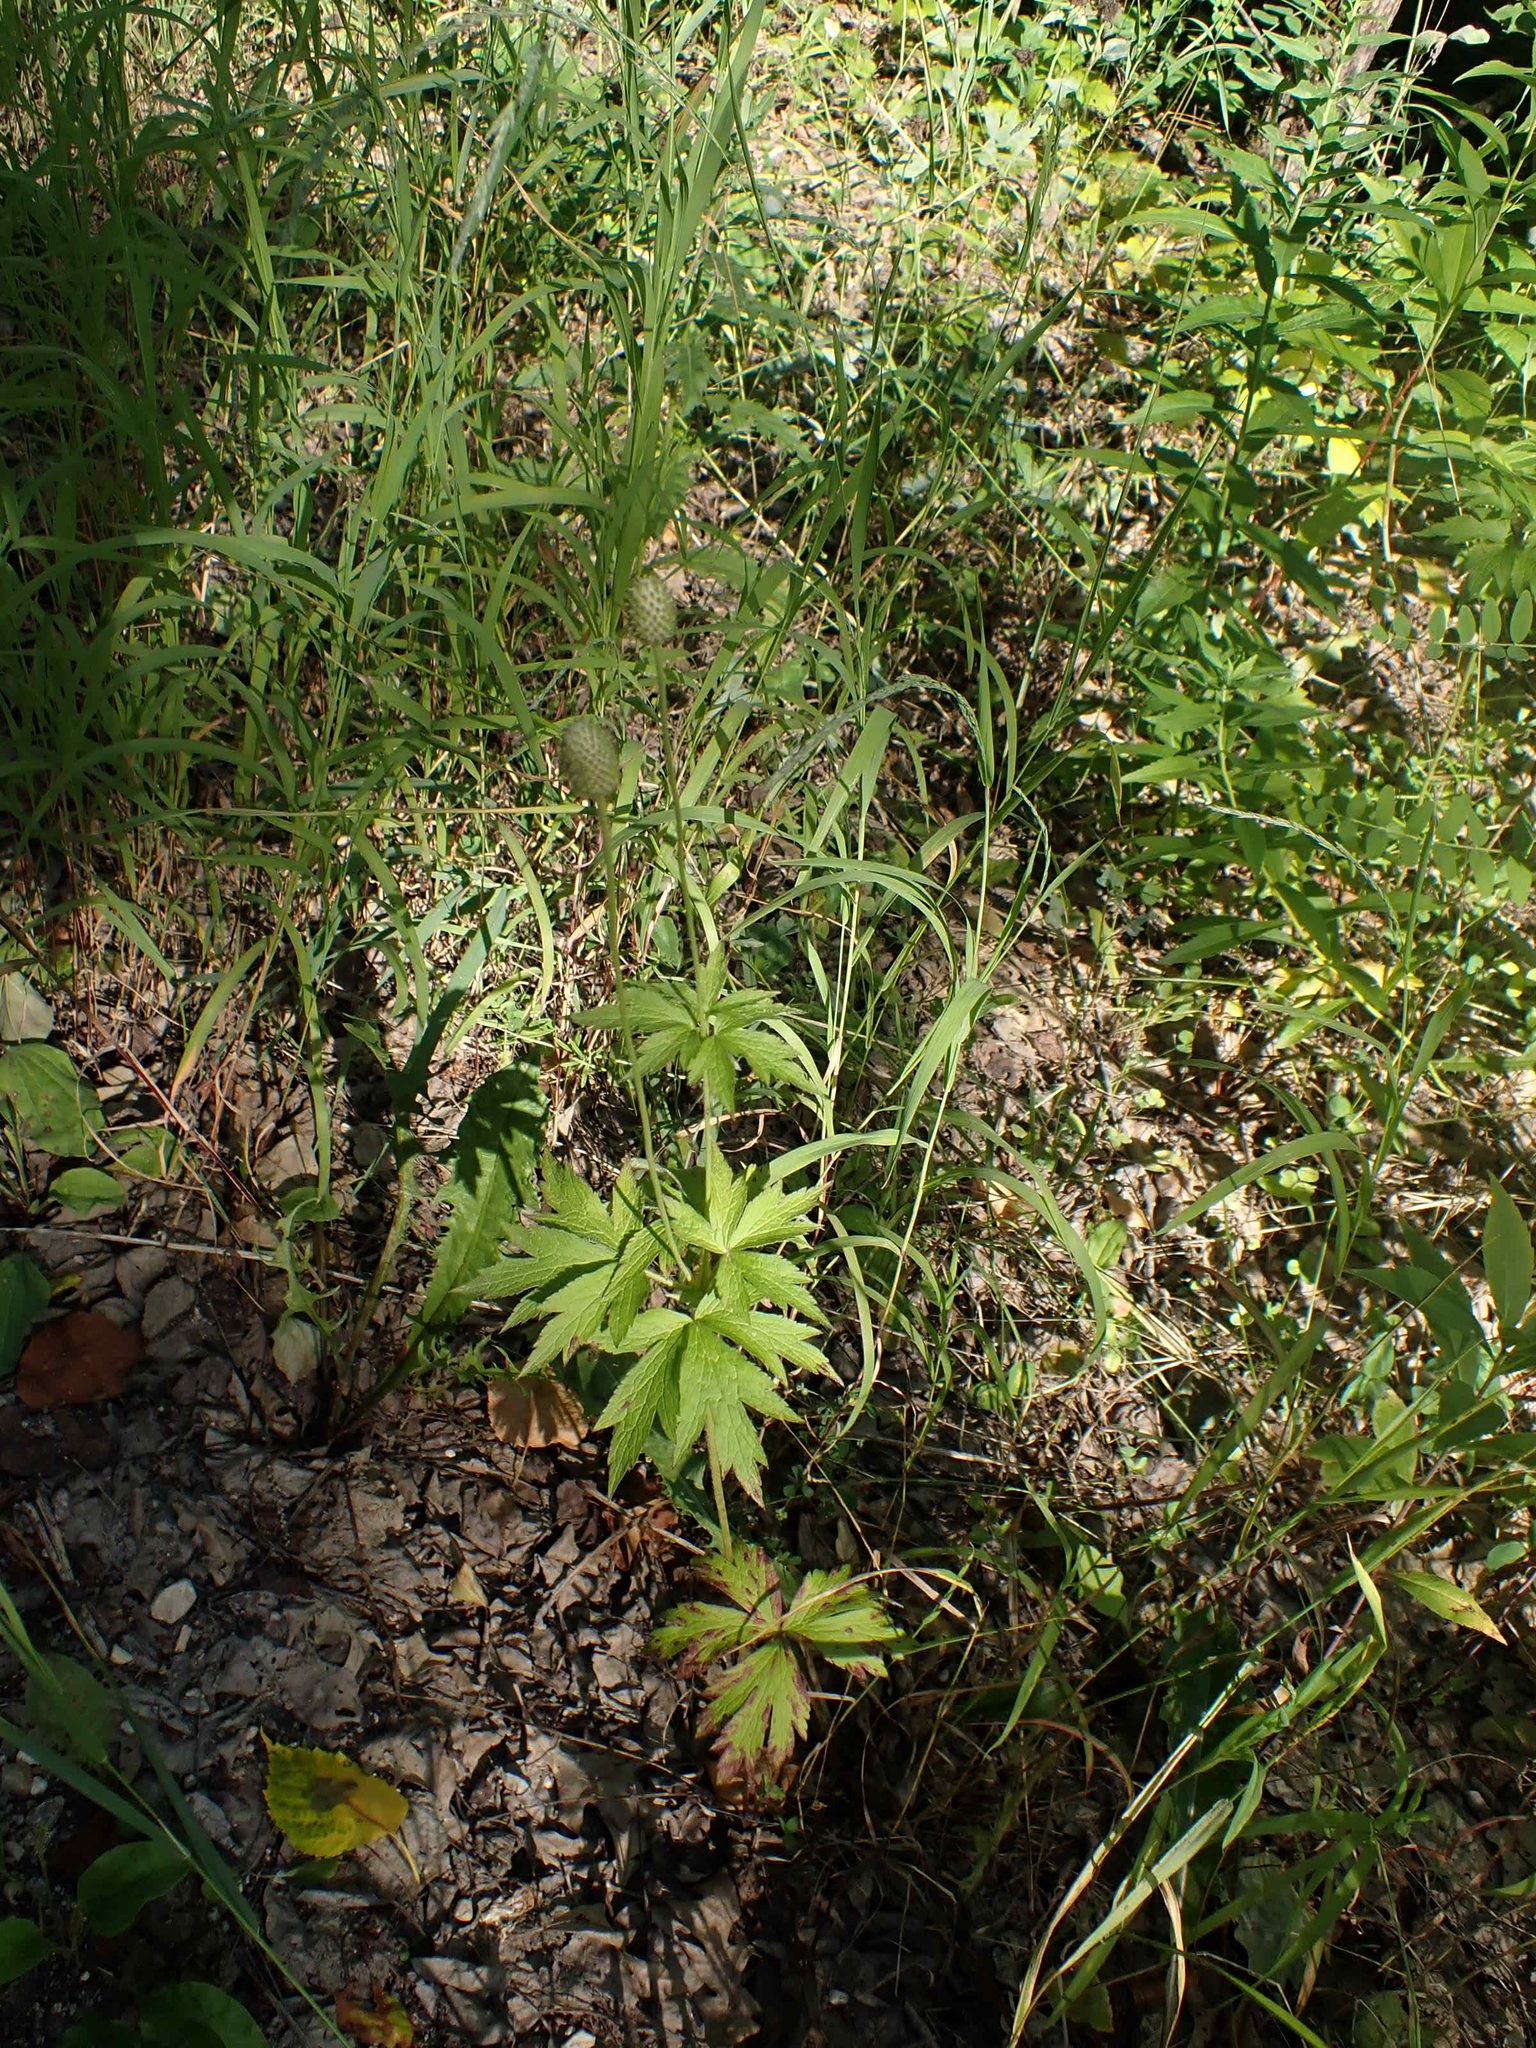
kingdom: Plantae
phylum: Tracheophyta
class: Magnoliopsida
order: Ranunculales
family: Ranunculaceae
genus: Anemone
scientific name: Anemone virginiana
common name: Tall anemone
